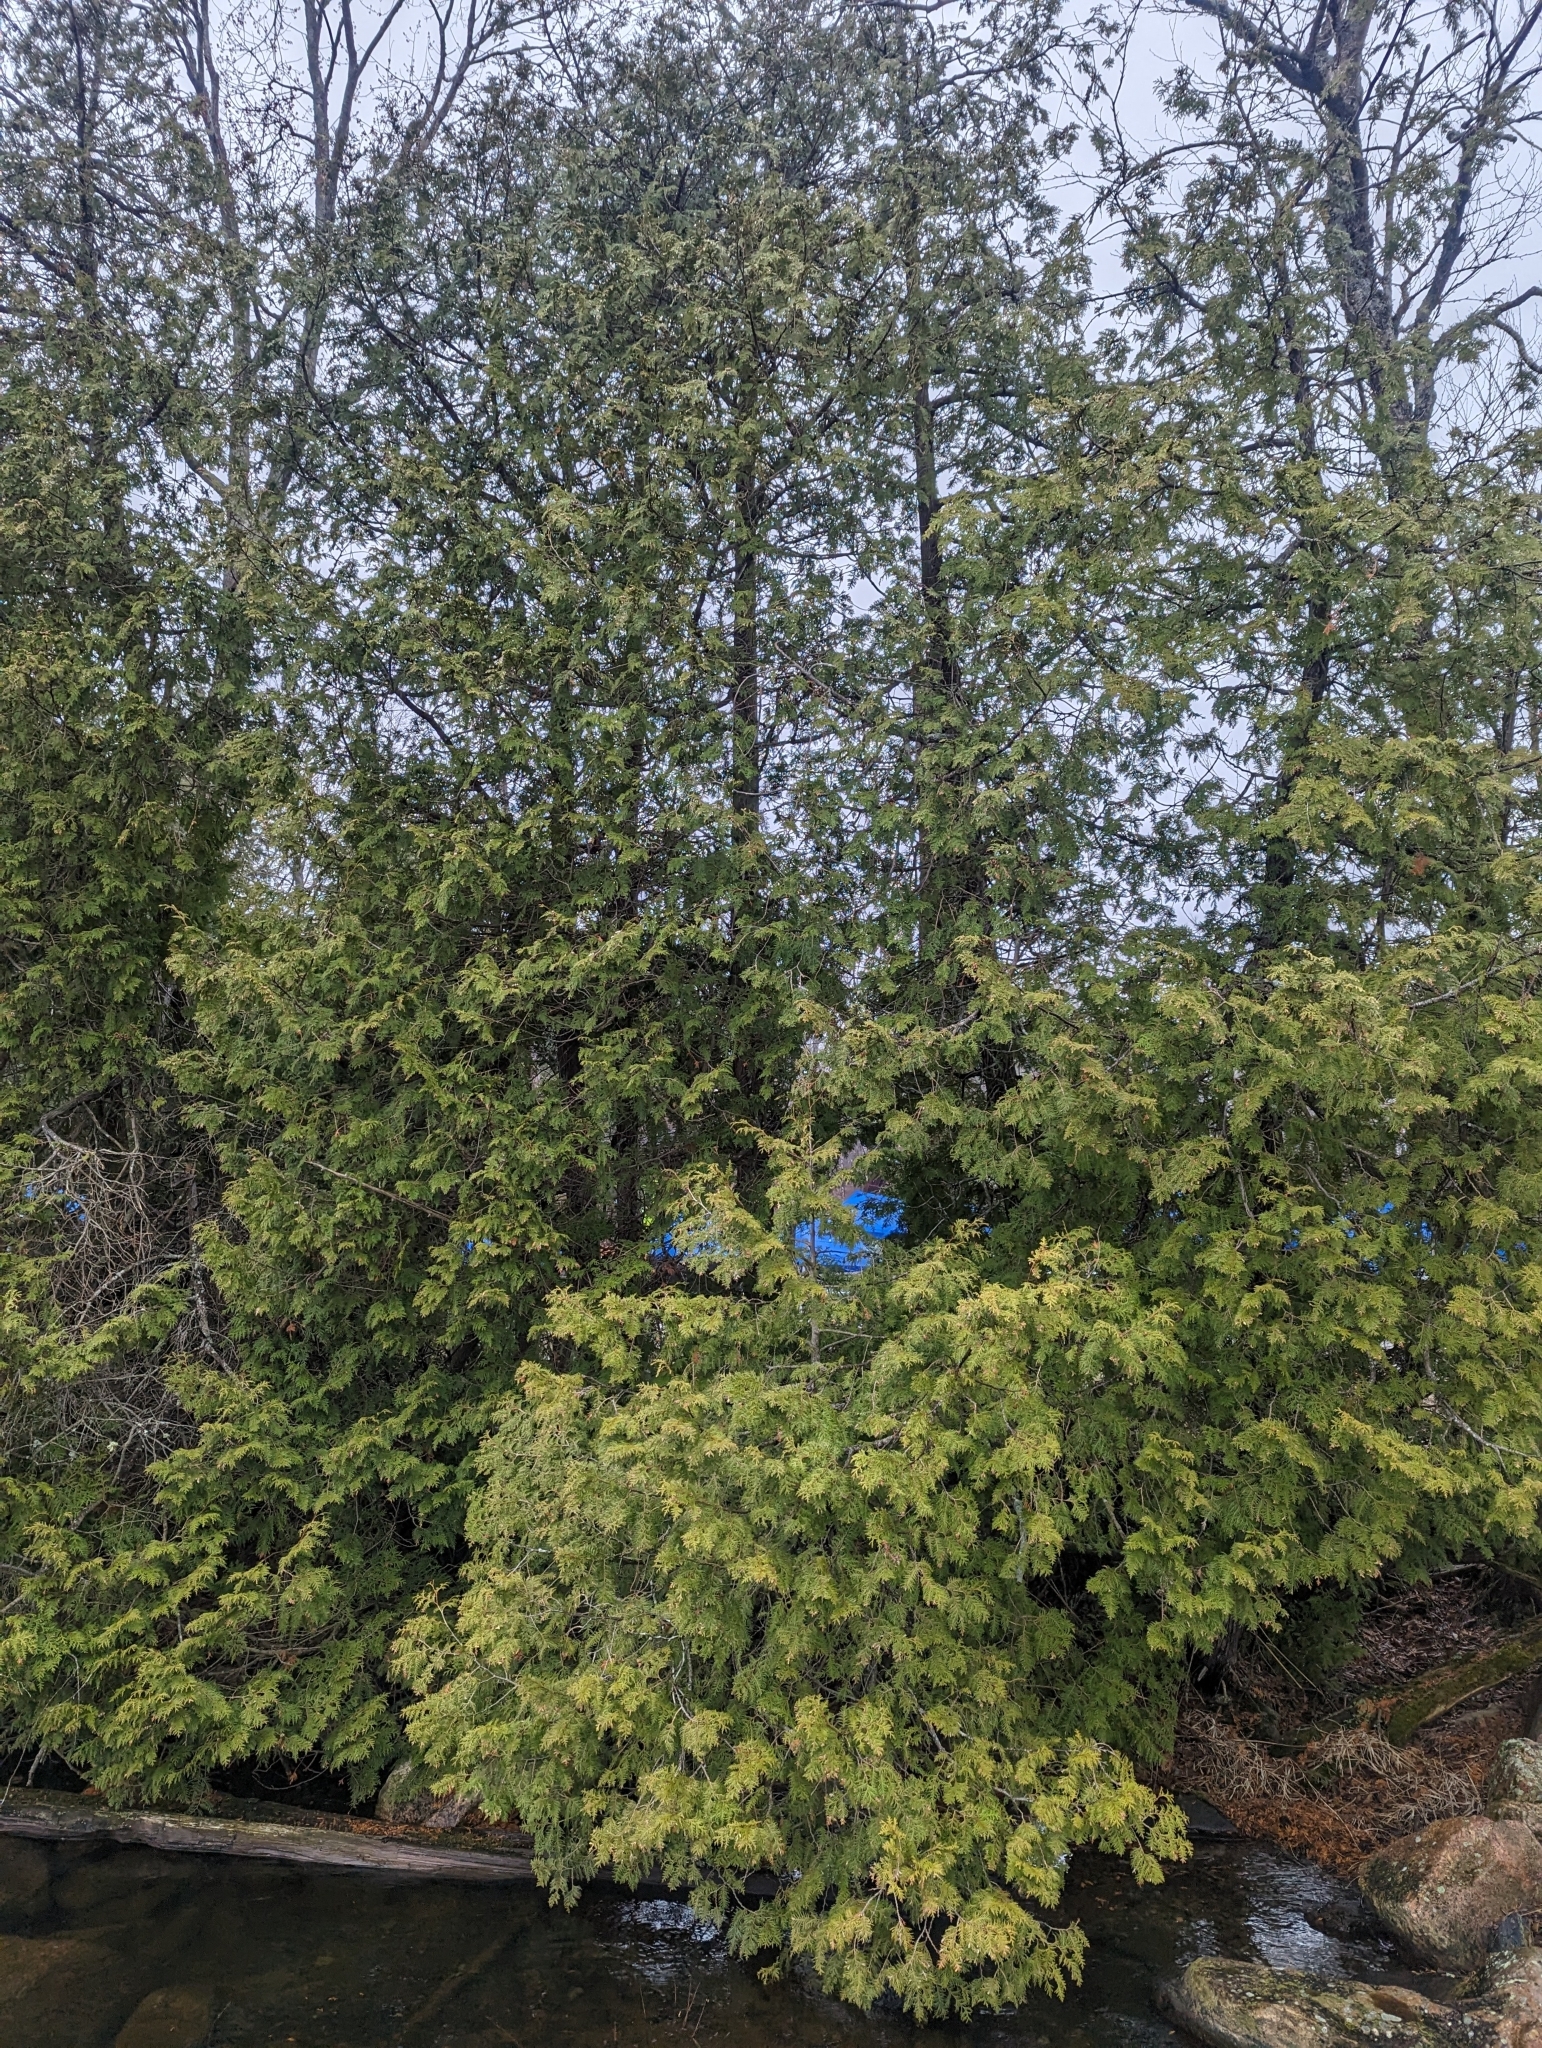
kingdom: Plantae
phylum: Tracheophyta
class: Pinopsida
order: Pinales
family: Cupressaceae
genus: Thuja
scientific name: Thuja occidentalis
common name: Northern white-cedar
